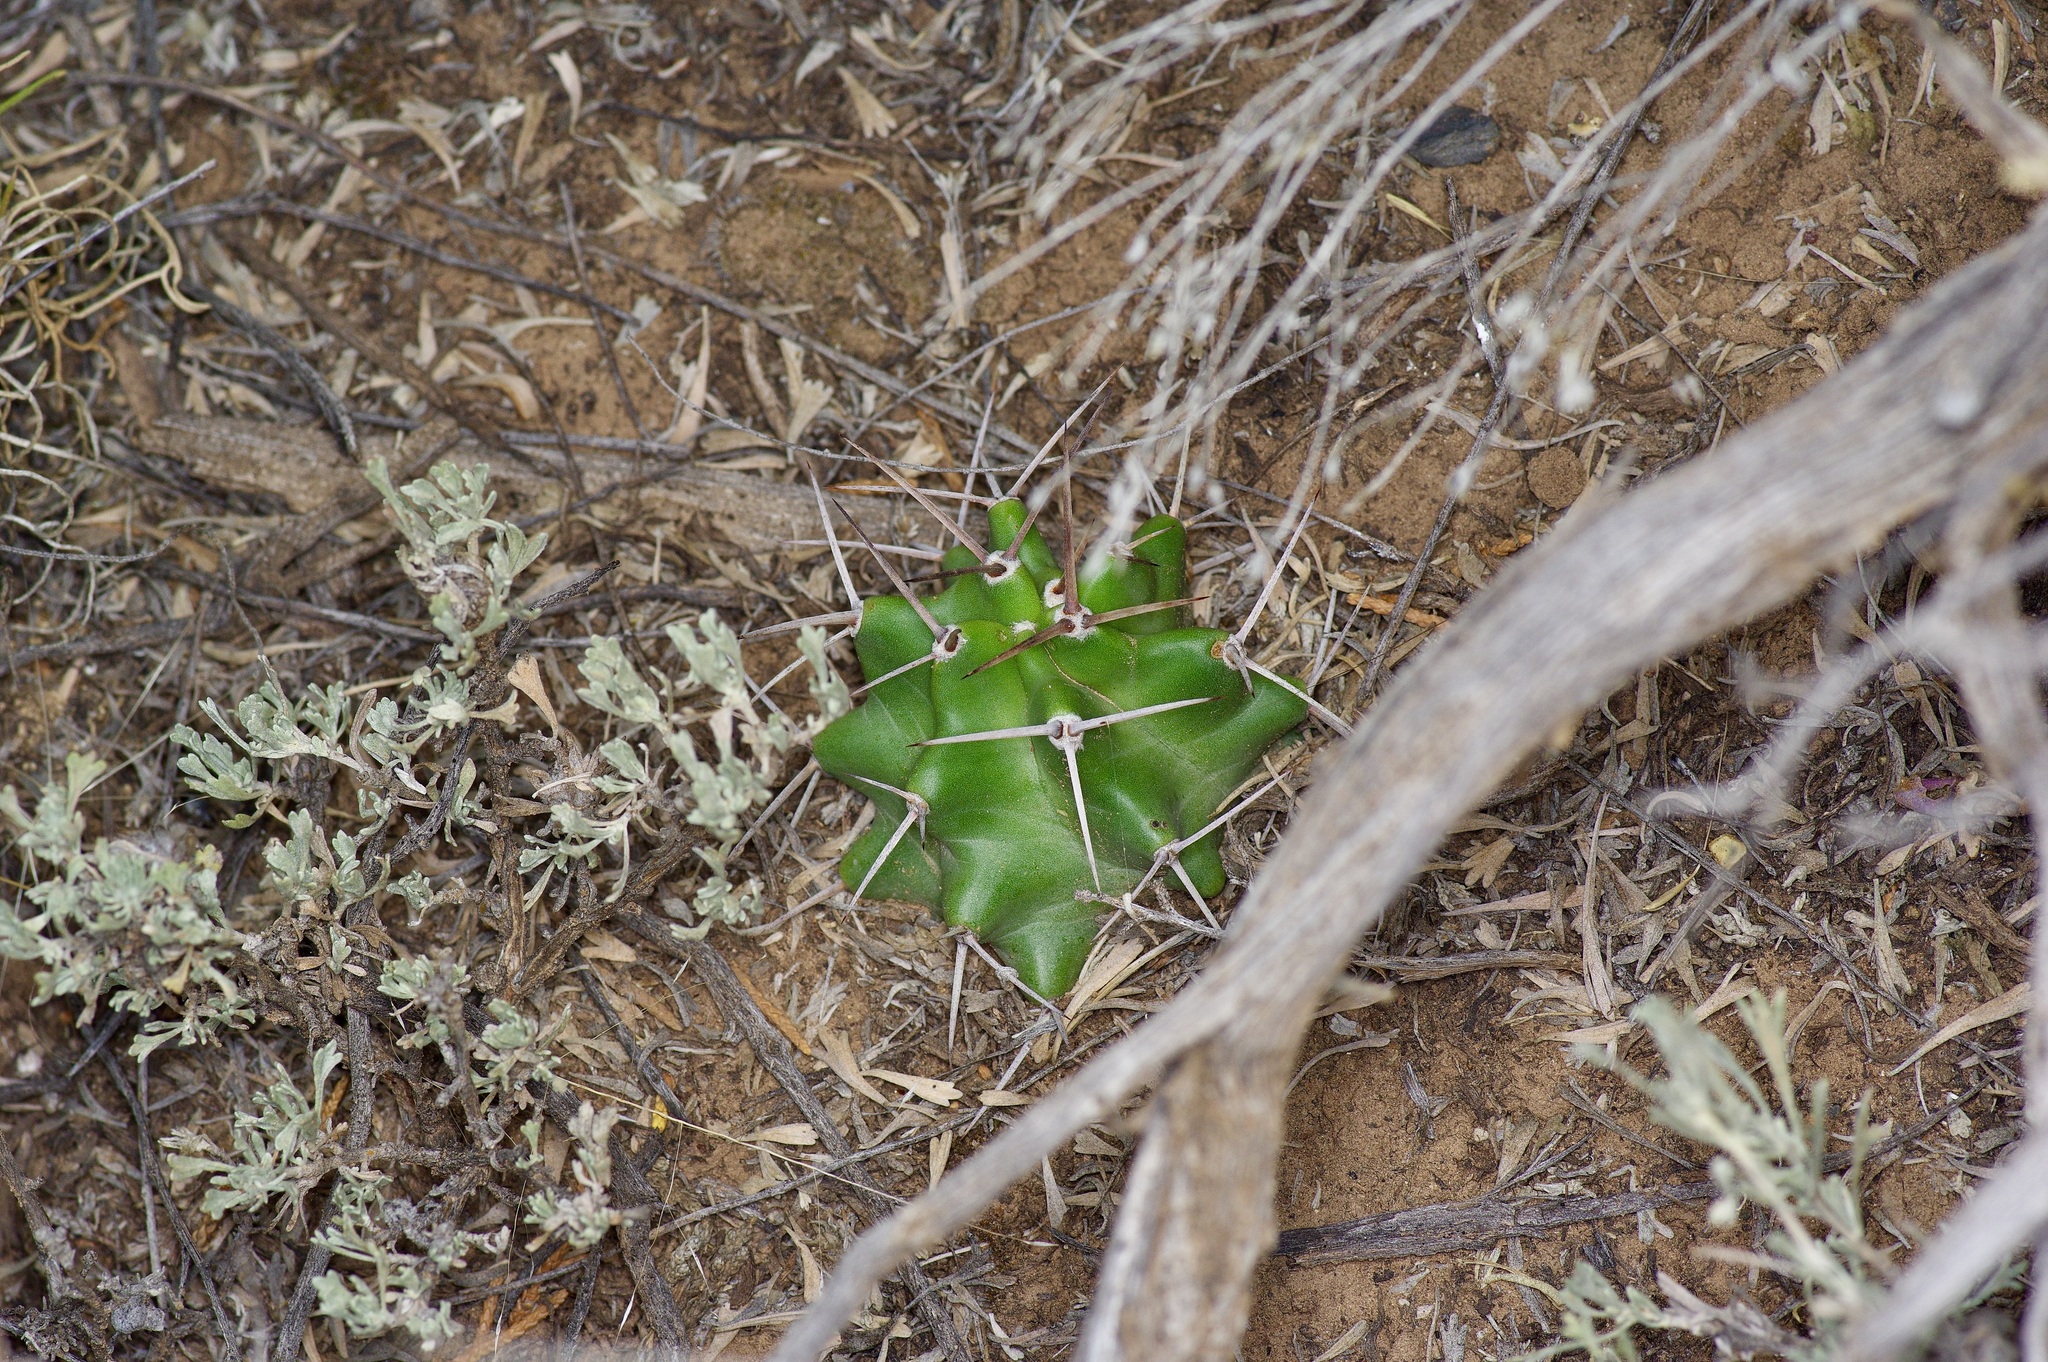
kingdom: Plantae
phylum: Tracheophyta
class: Magnoliopsida
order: Caryophyllales
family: Cactaceae
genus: Echinocereus
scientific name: Echinocereus triglochidiatus
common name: Claretcup hedgehog
